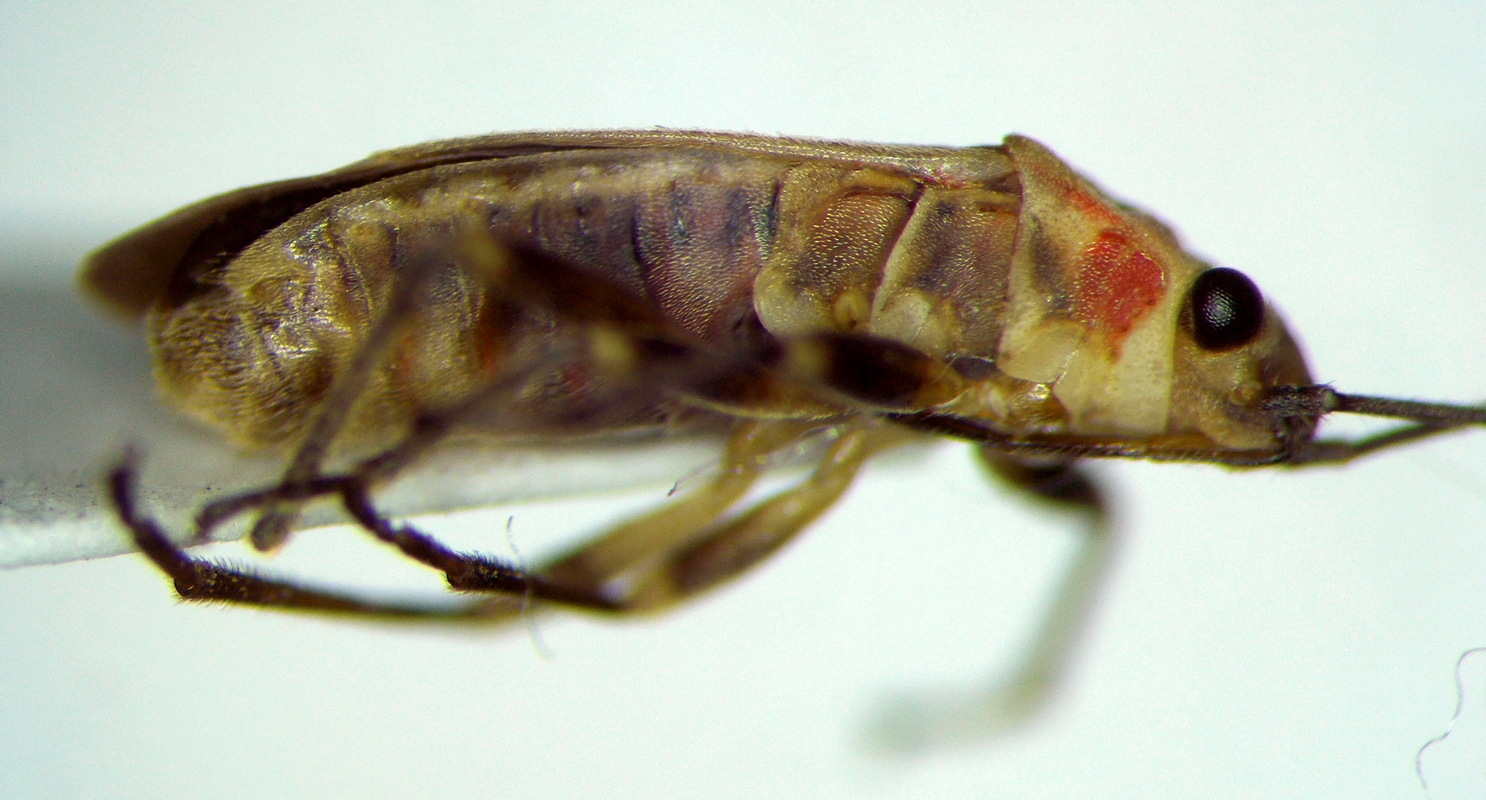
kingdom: Animalia
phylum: Arthropoda
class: Insecta
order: Hemiptera
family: Lygaeidae
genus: Ochrimnus
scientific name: Ochrimnus mimulus
